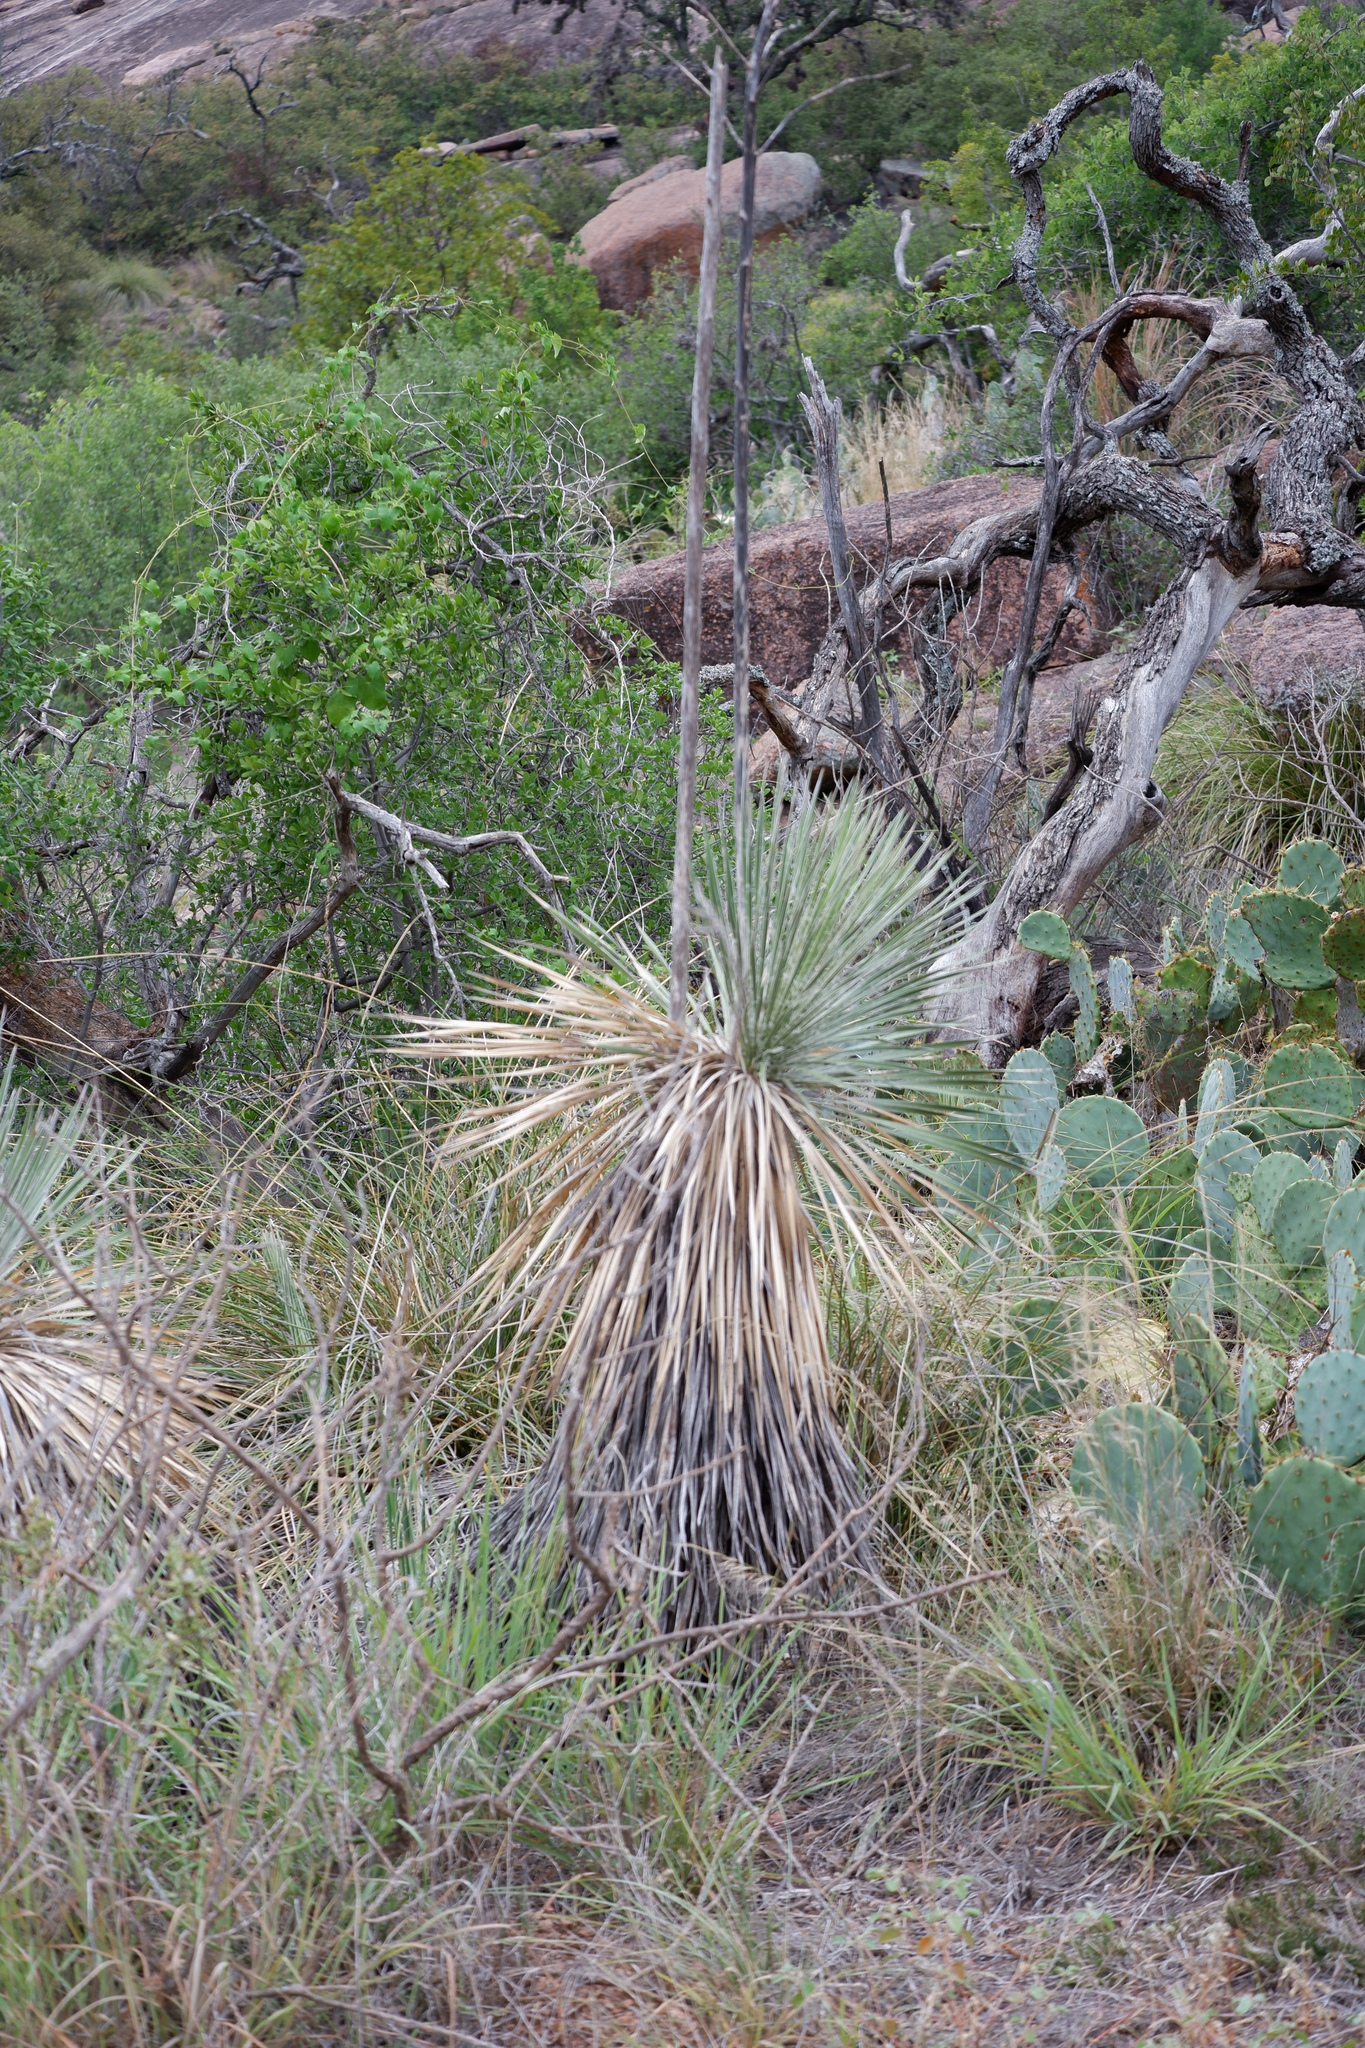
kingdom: Plantae
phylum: Tracheophyta
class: Liliopsida
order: Asparagales
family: Asparagaceae
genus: Yucca
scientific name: Yucca constricta
